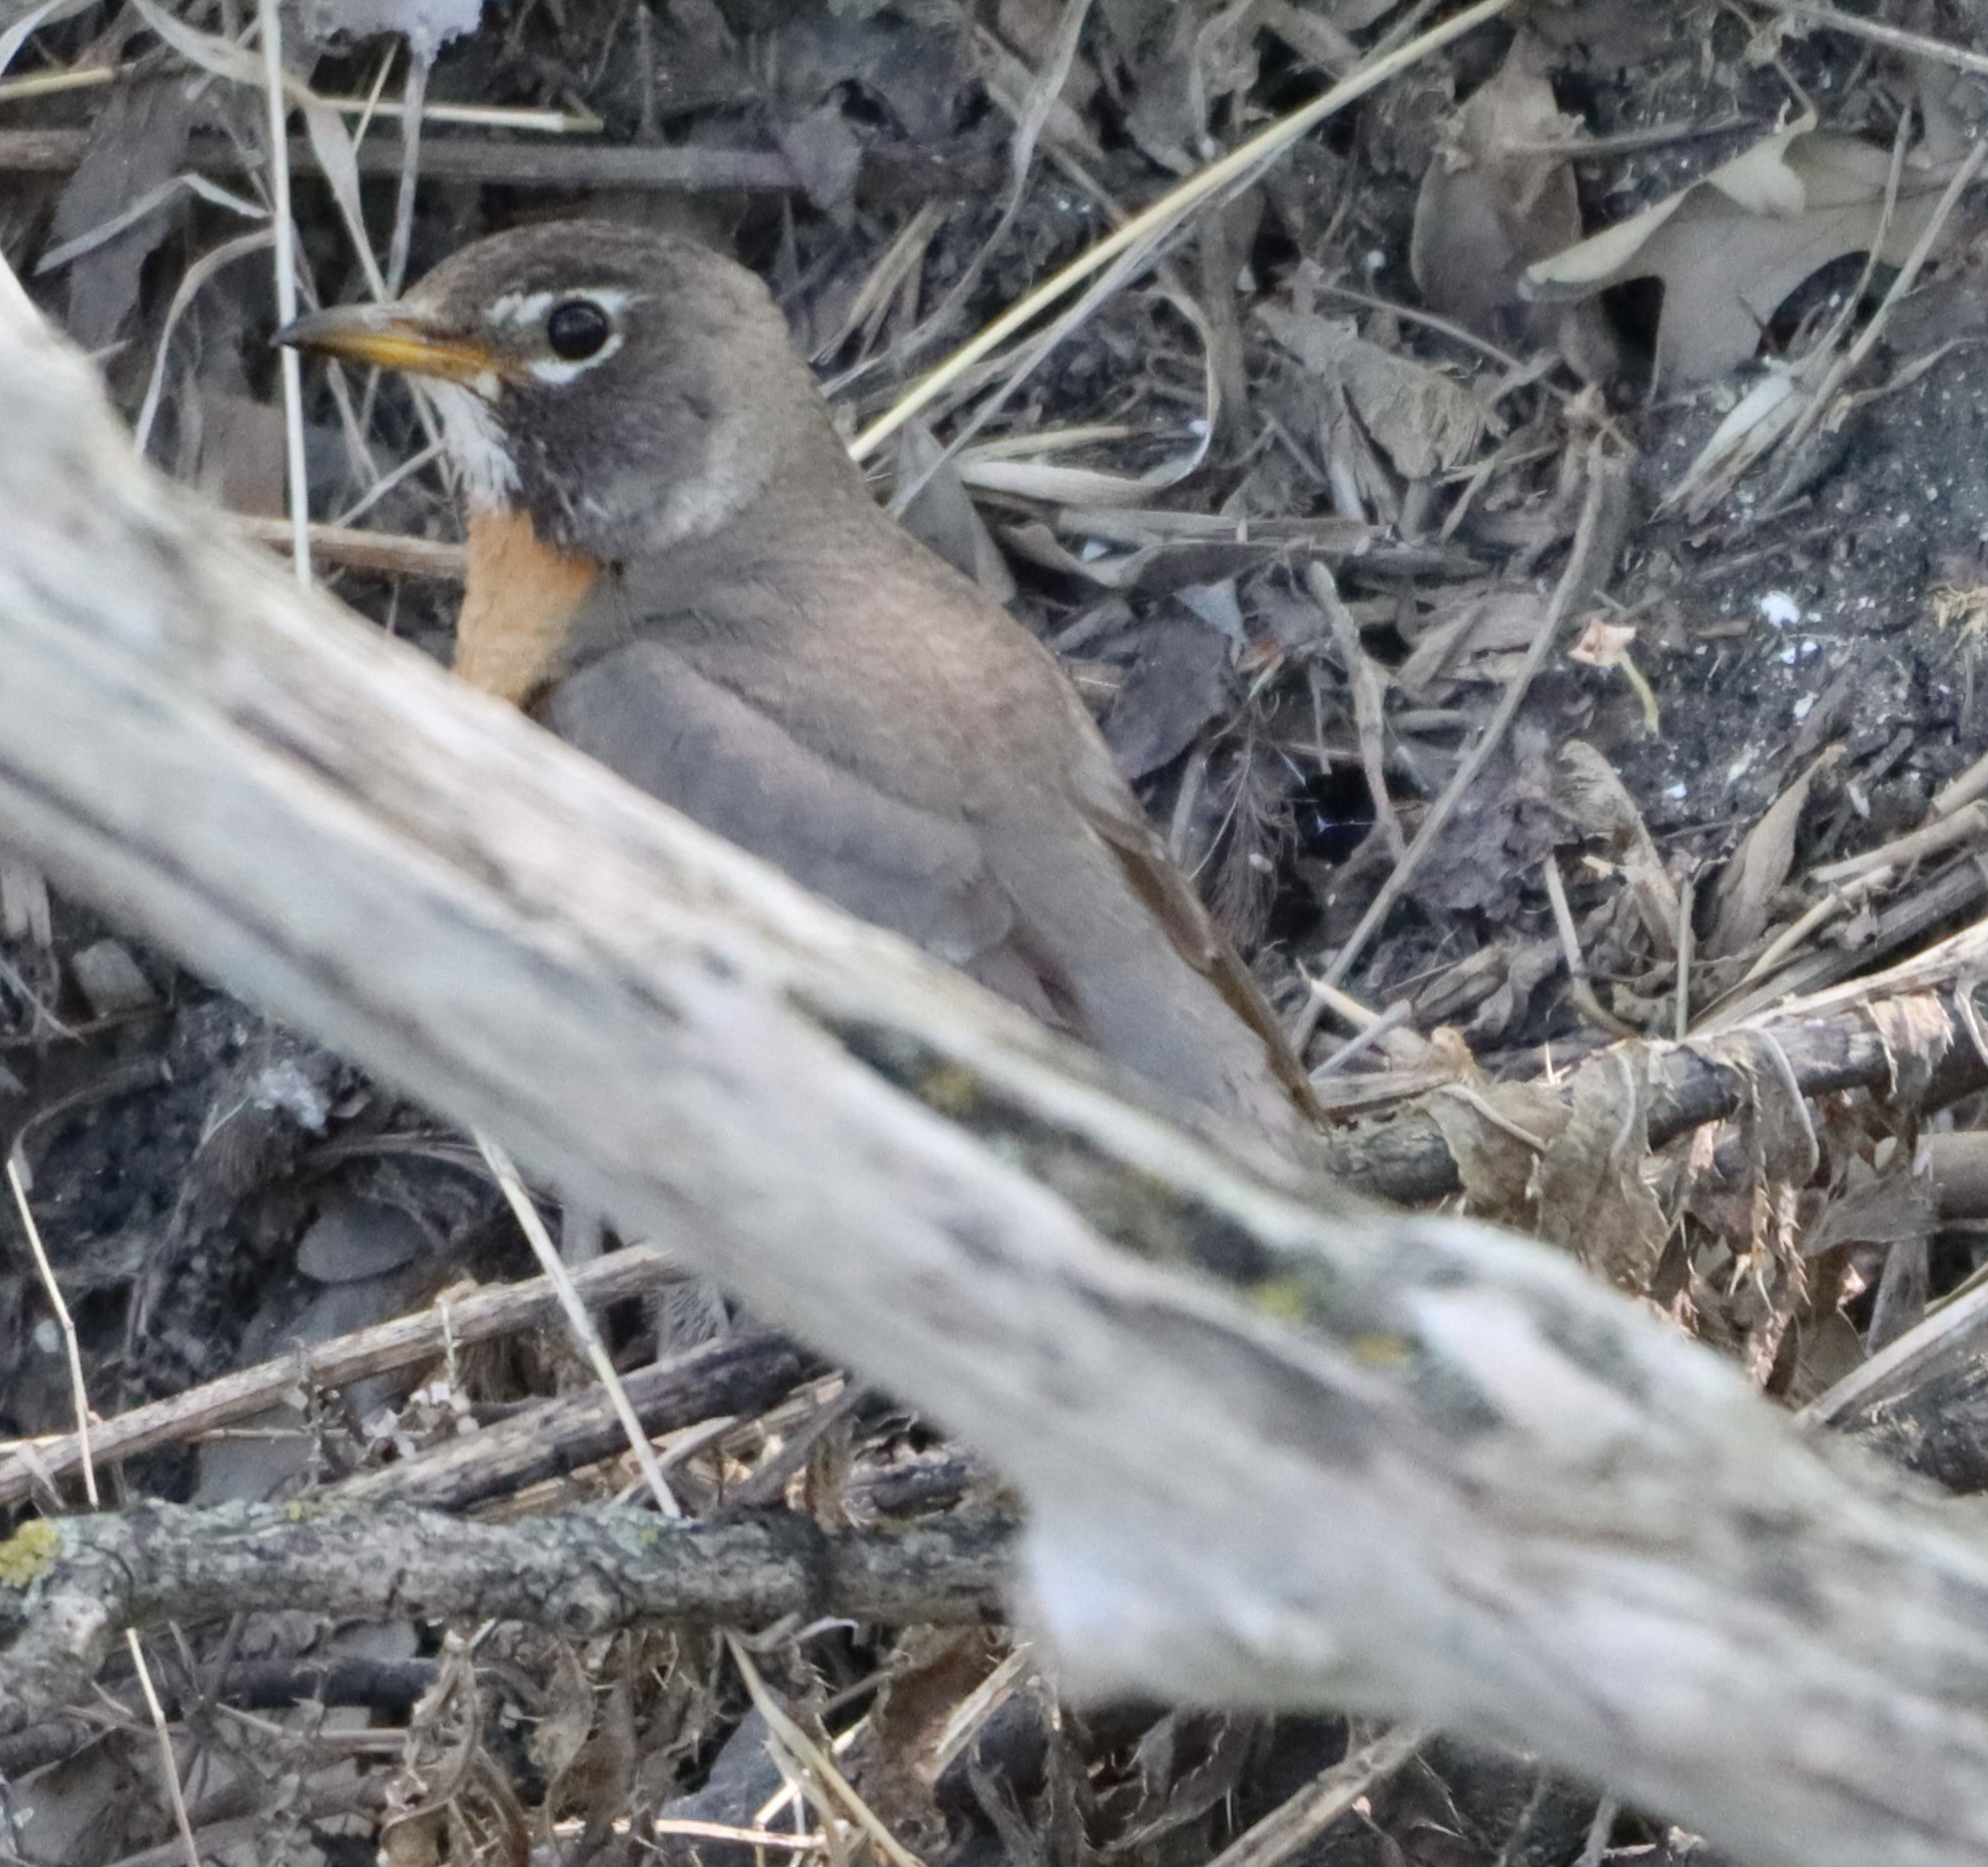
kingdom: Animalia
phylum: Chordata
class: Aves
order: Passeriformes
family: Turdidae
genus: Turdus
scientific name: Turdus migratorius
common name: American robin
